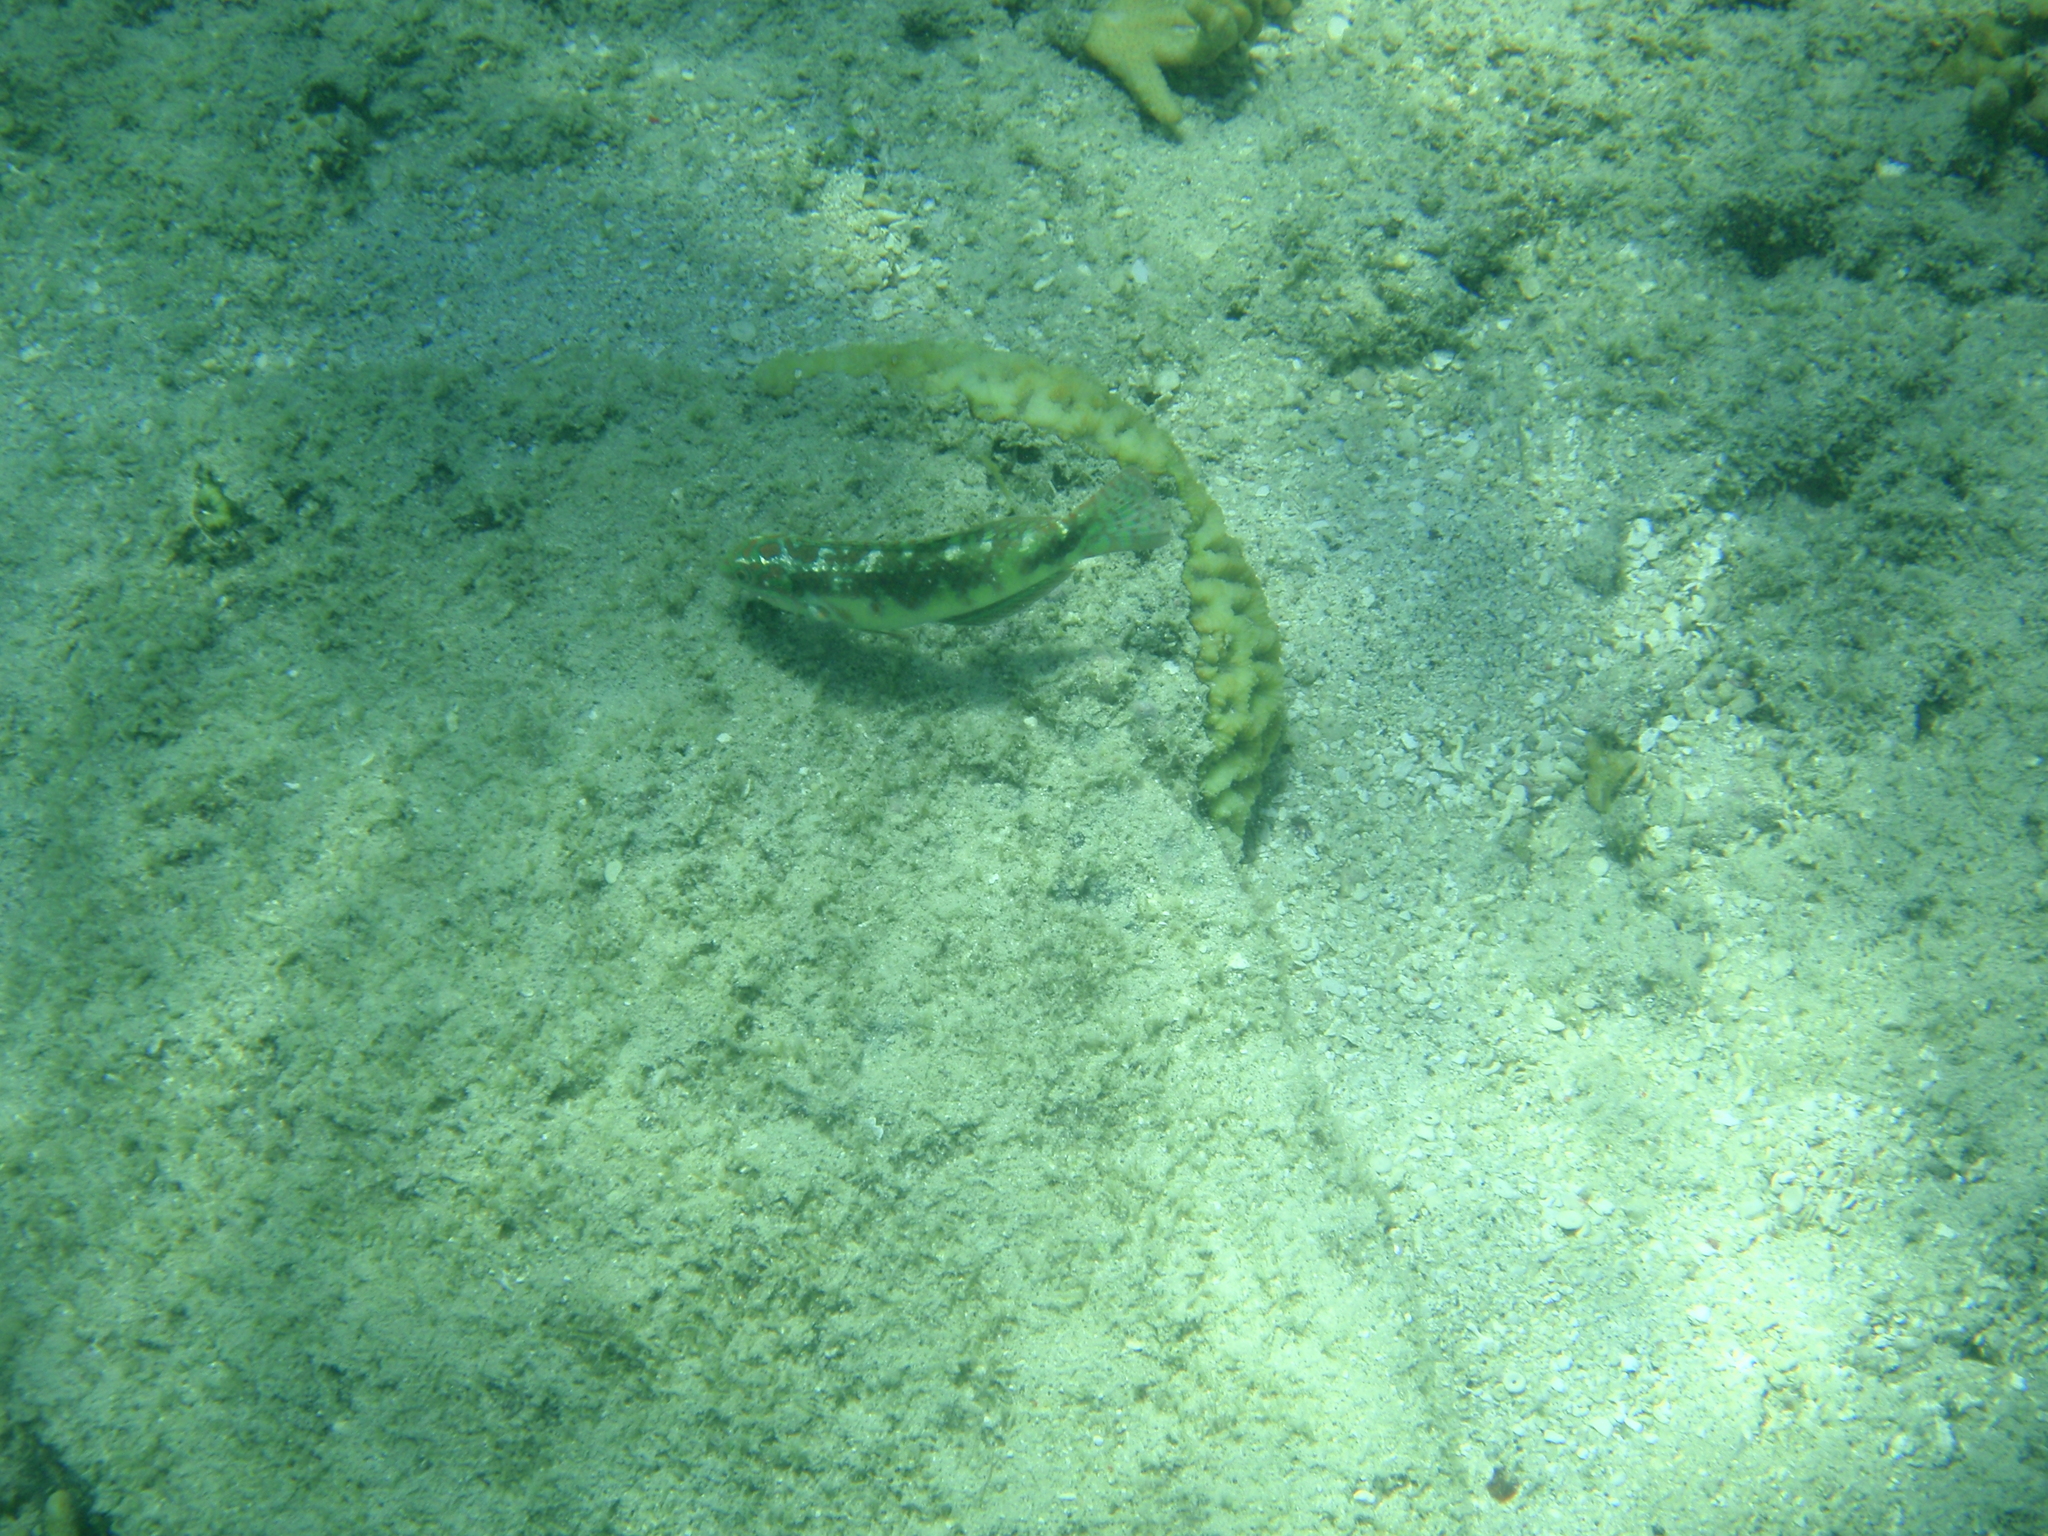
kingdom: Animalia
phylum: Chordata
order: Perciformes
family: Labridae
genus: Halichoeres
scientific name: Halichoeres margaritaceus
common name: Pink-belly wrasse
